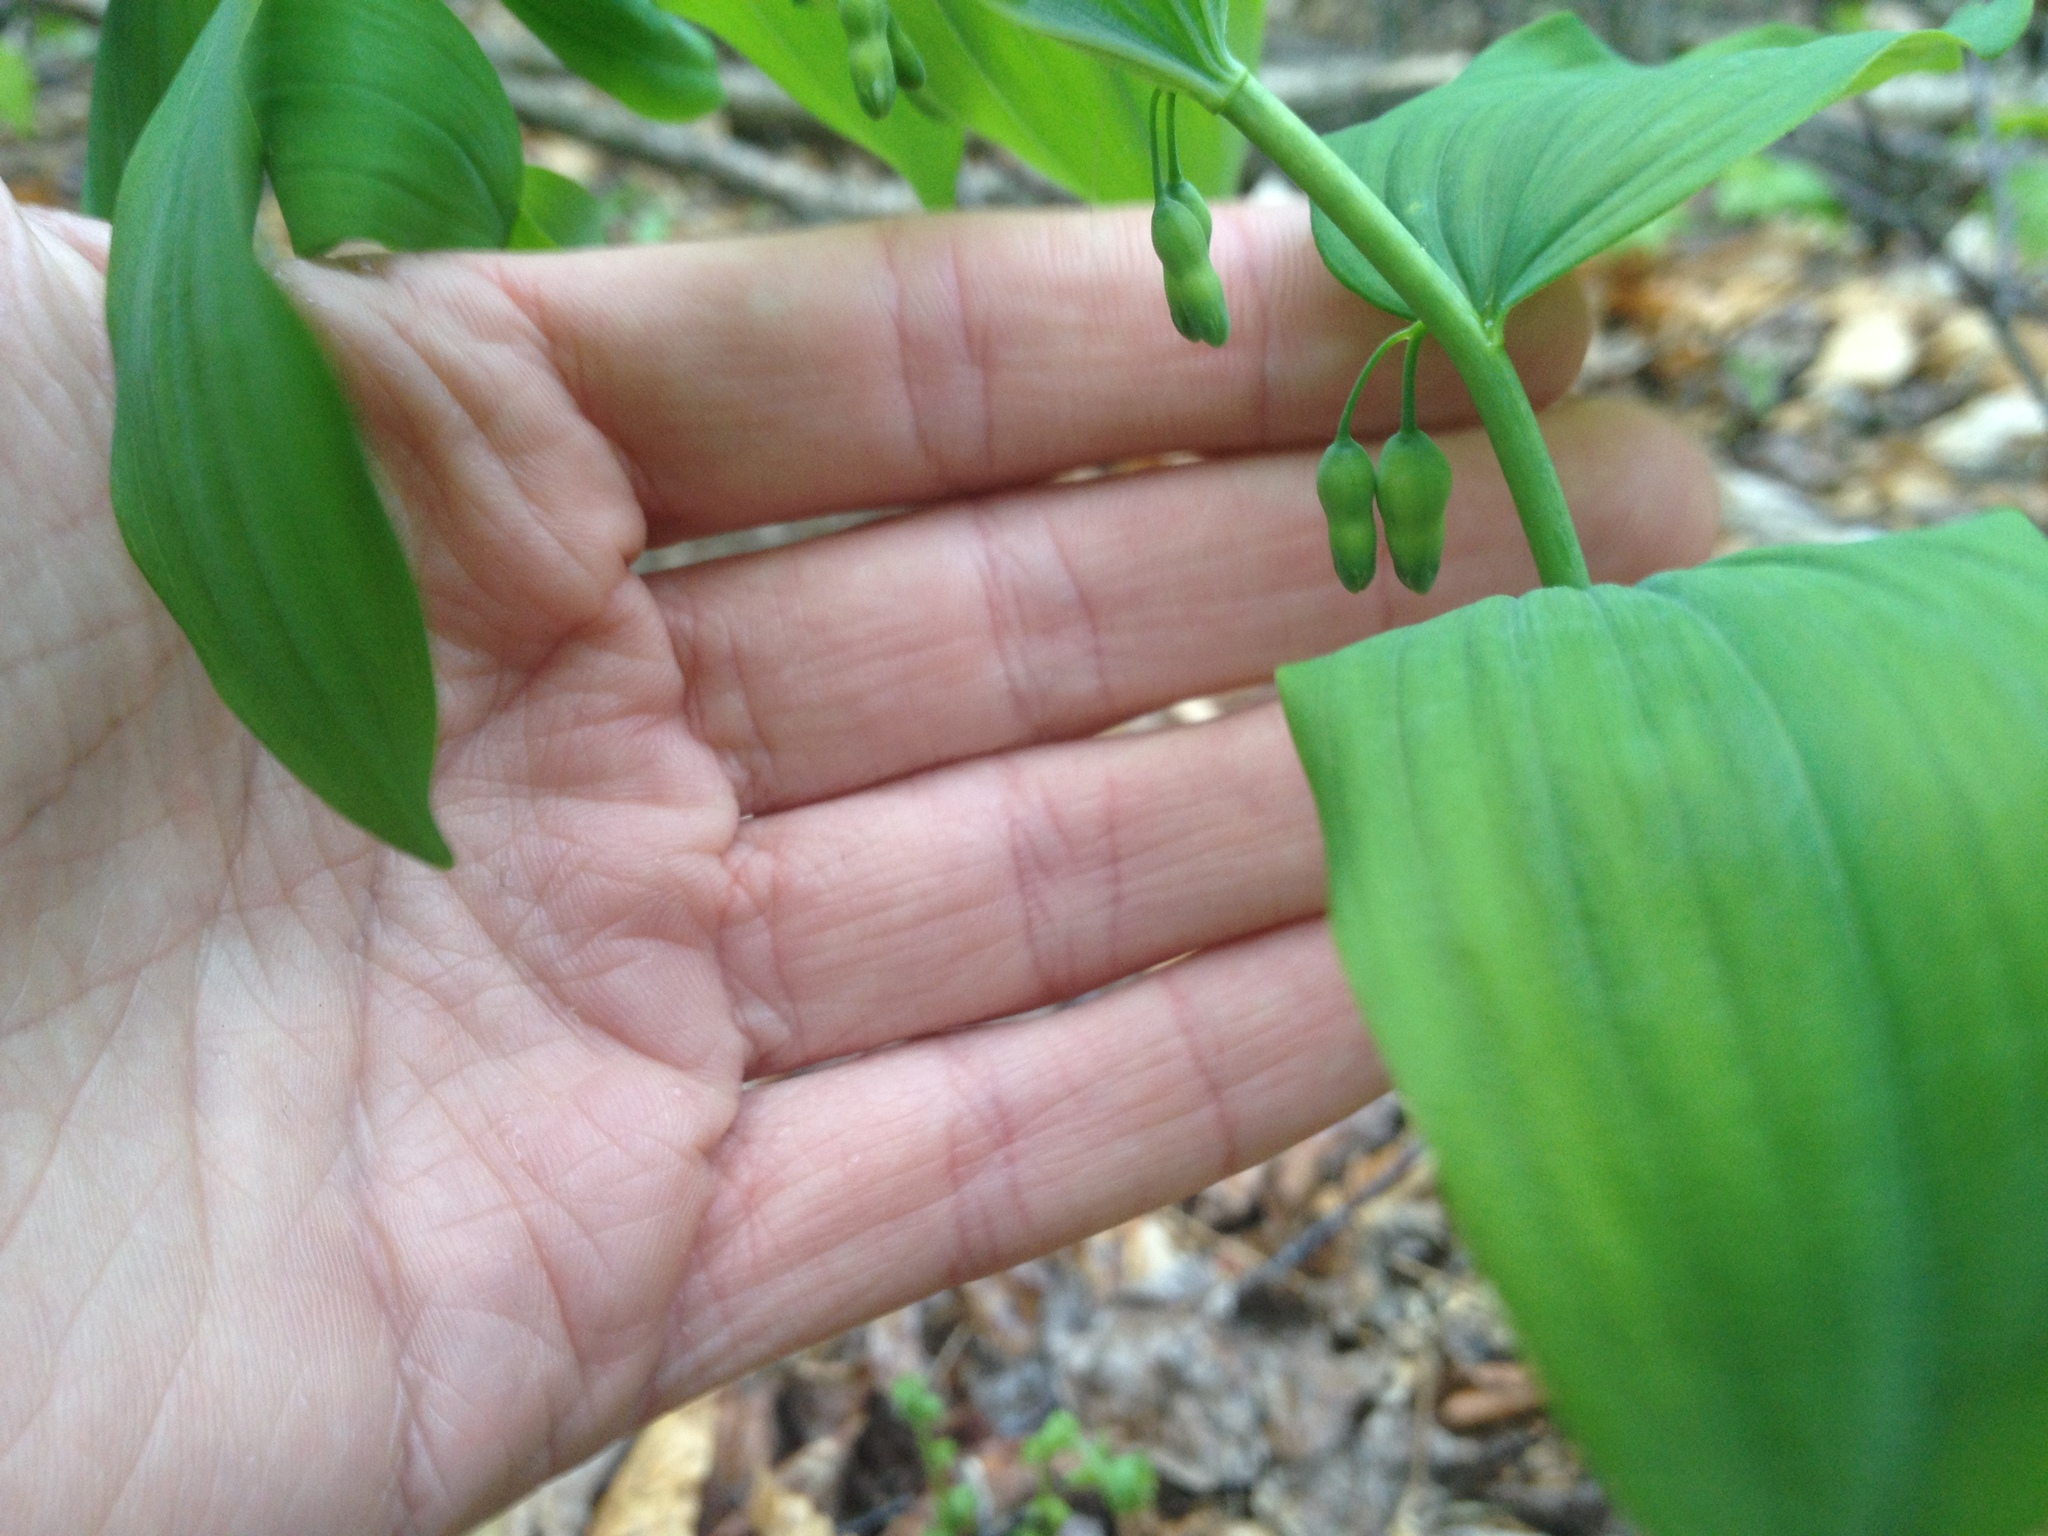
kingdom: Plantae
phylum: Tracheophyta
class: Liliopsida
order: Asparagales
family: Asparagaceae
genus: Polygonatum
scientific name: Polygonatum pubescens
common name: Downy solomon's seal
